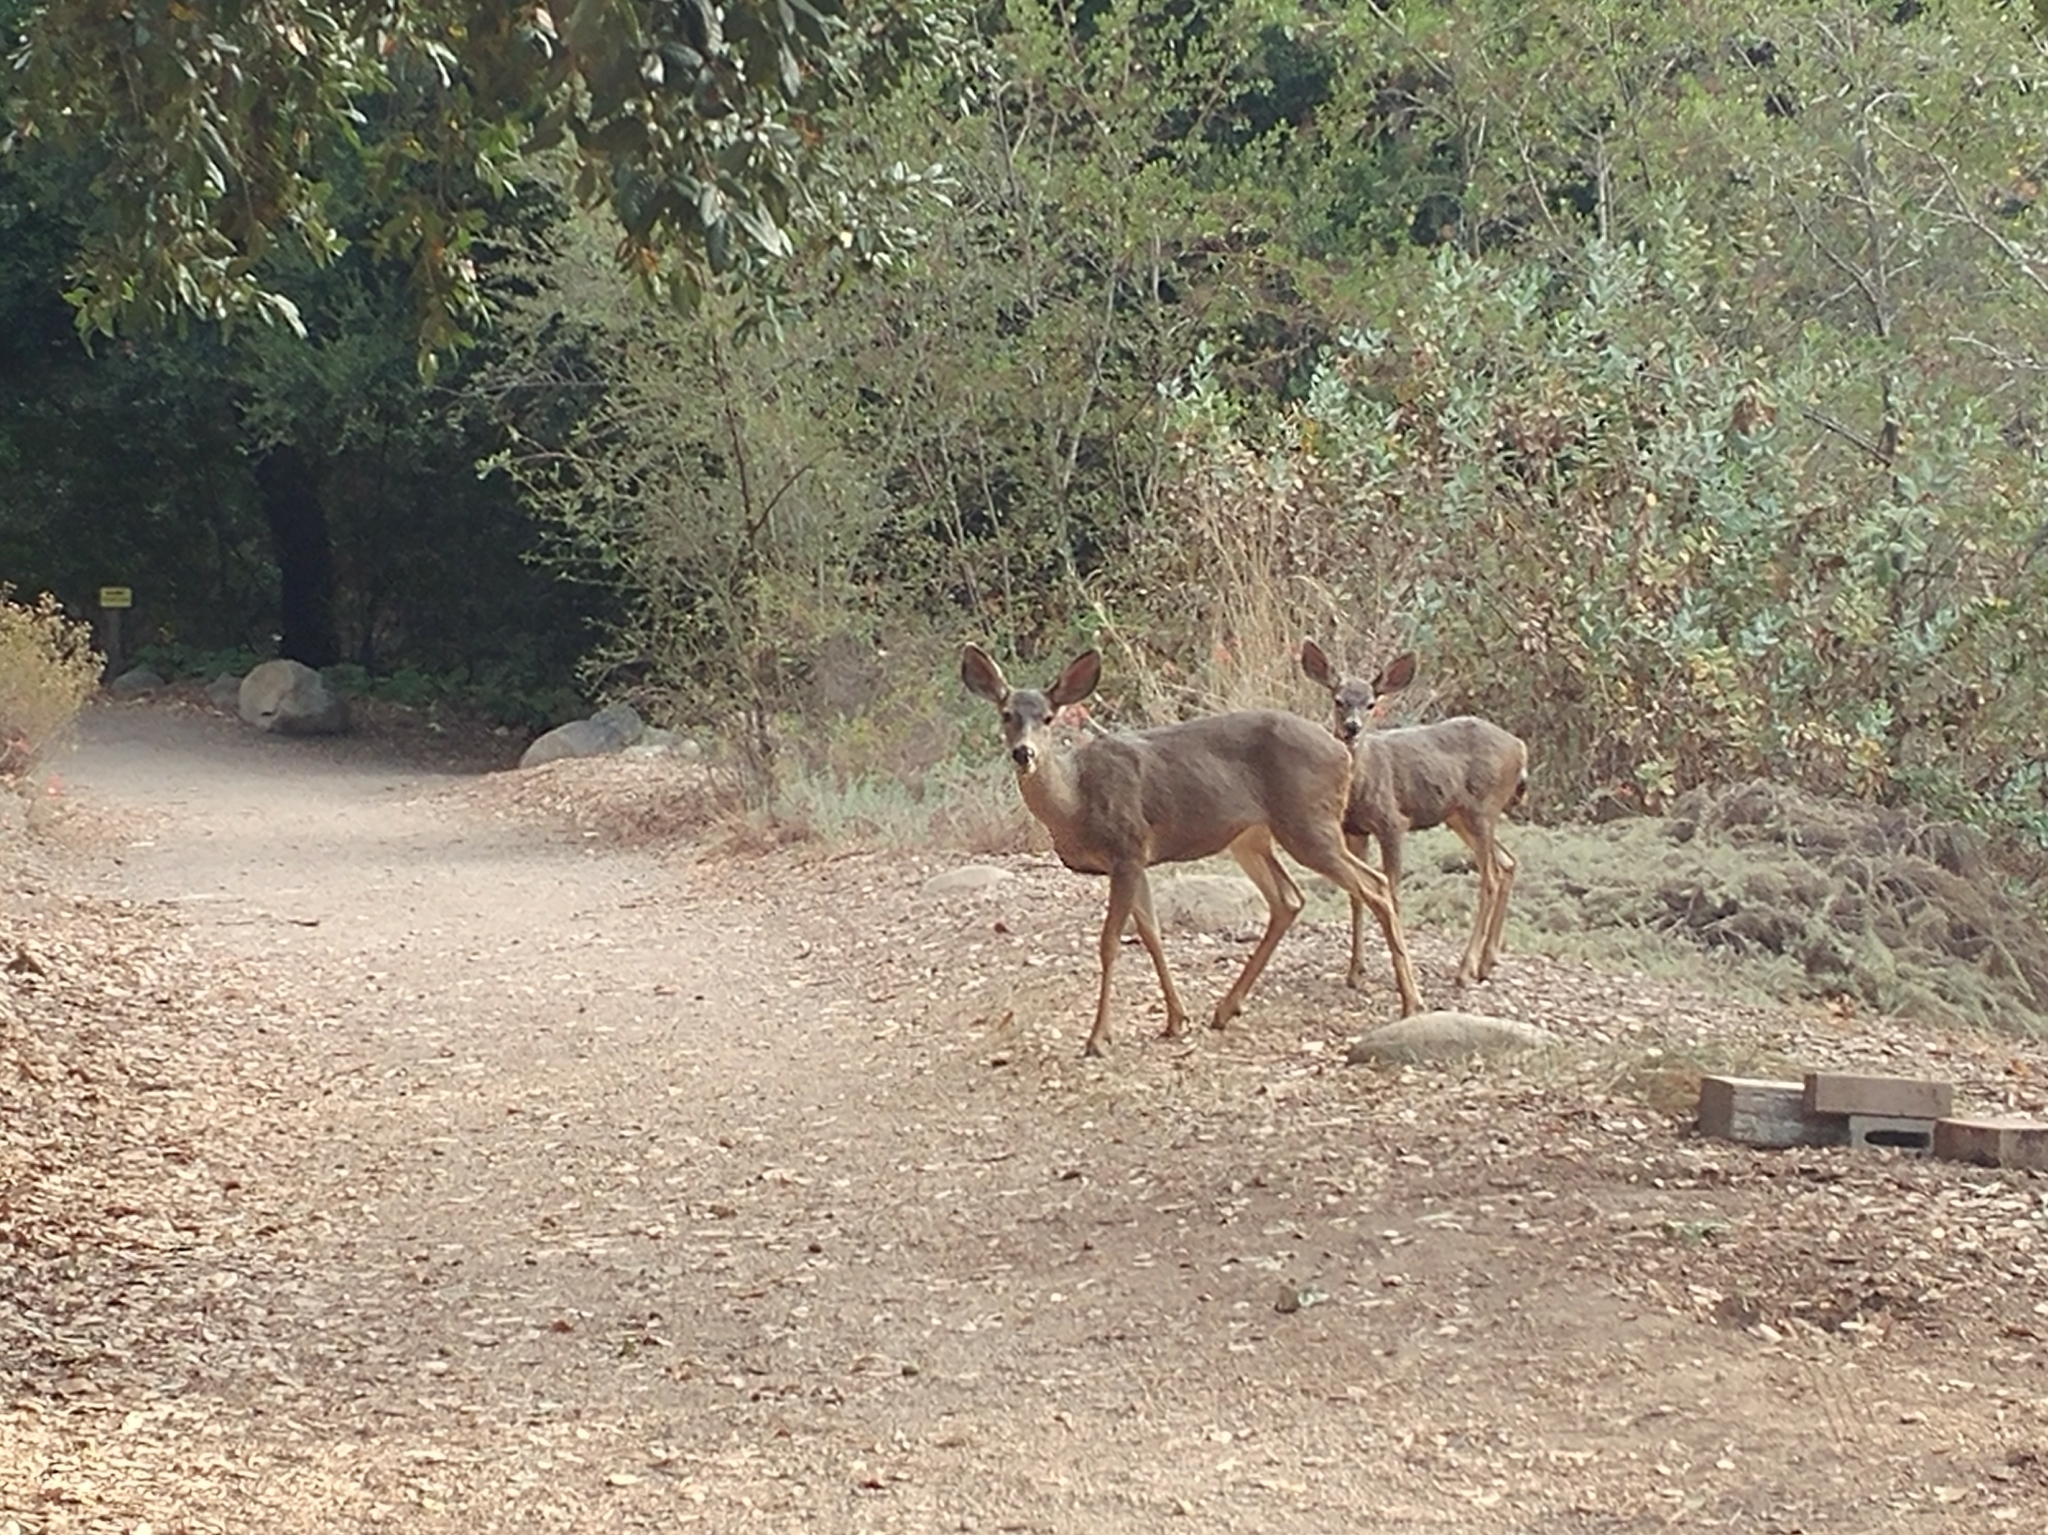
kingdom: Animalia
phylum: Chordata
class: Mammalia
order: Artiodactyla
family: Cervidae
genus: Odocoileus
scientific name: Odocoileus hemionus
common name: Mule deer
